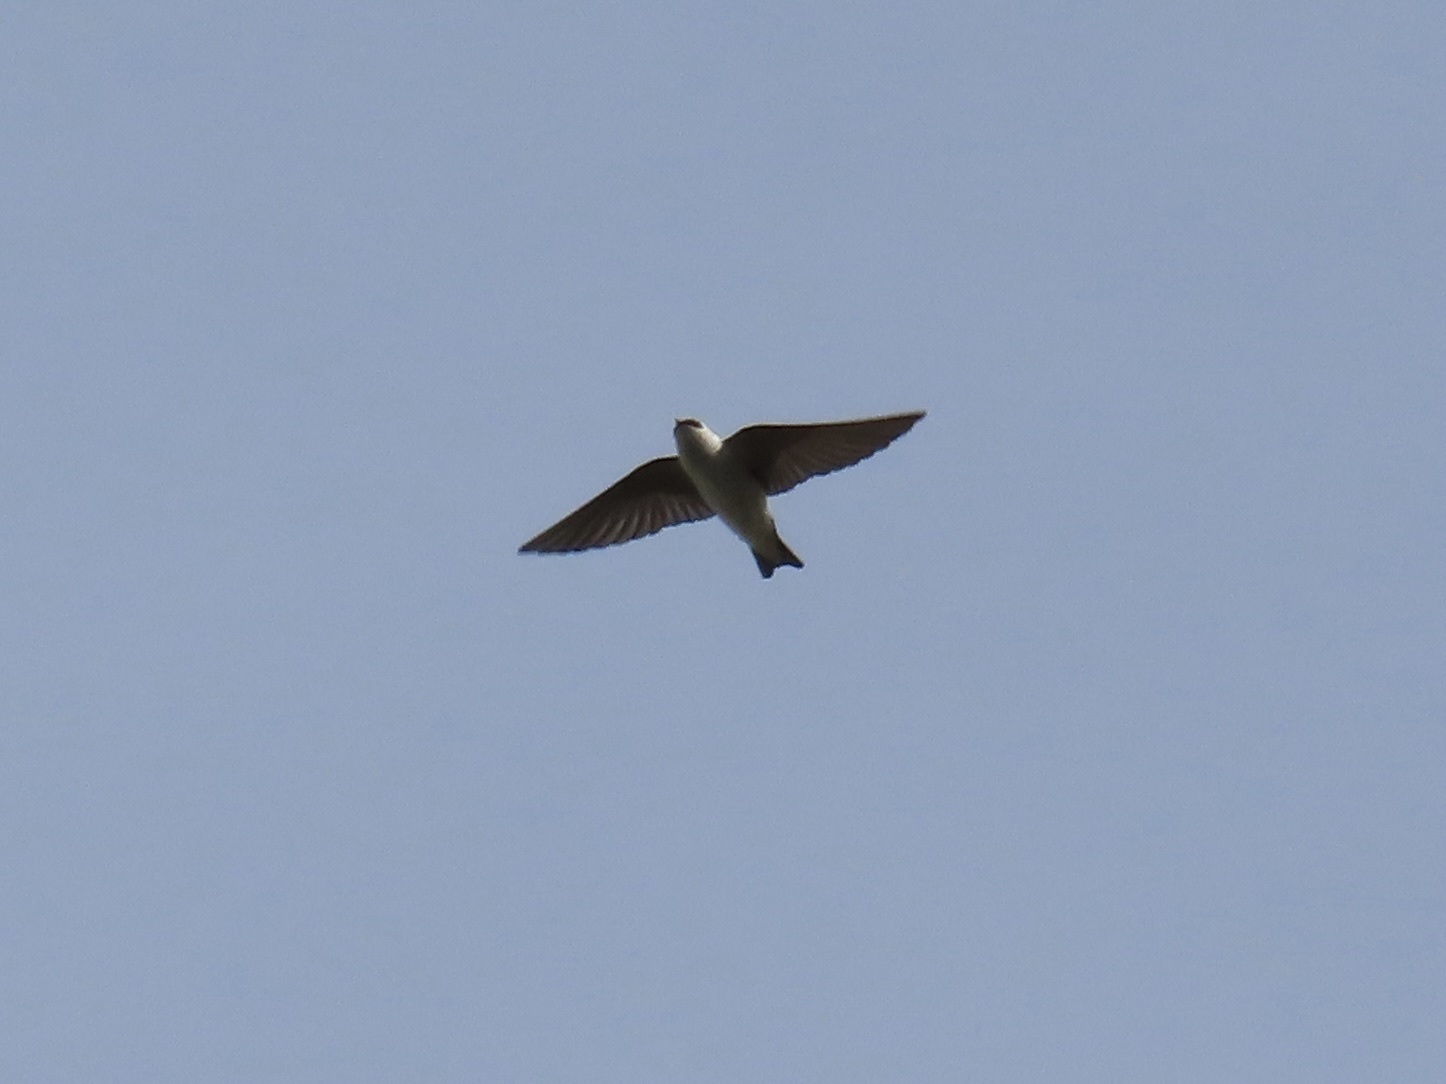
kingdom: Animalia
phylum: Chordata
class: Aves
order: Passeriformes
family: Hirundinidae
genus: Tachycineta
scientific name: Tachycineta thalassina
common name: Violet-green swallow
